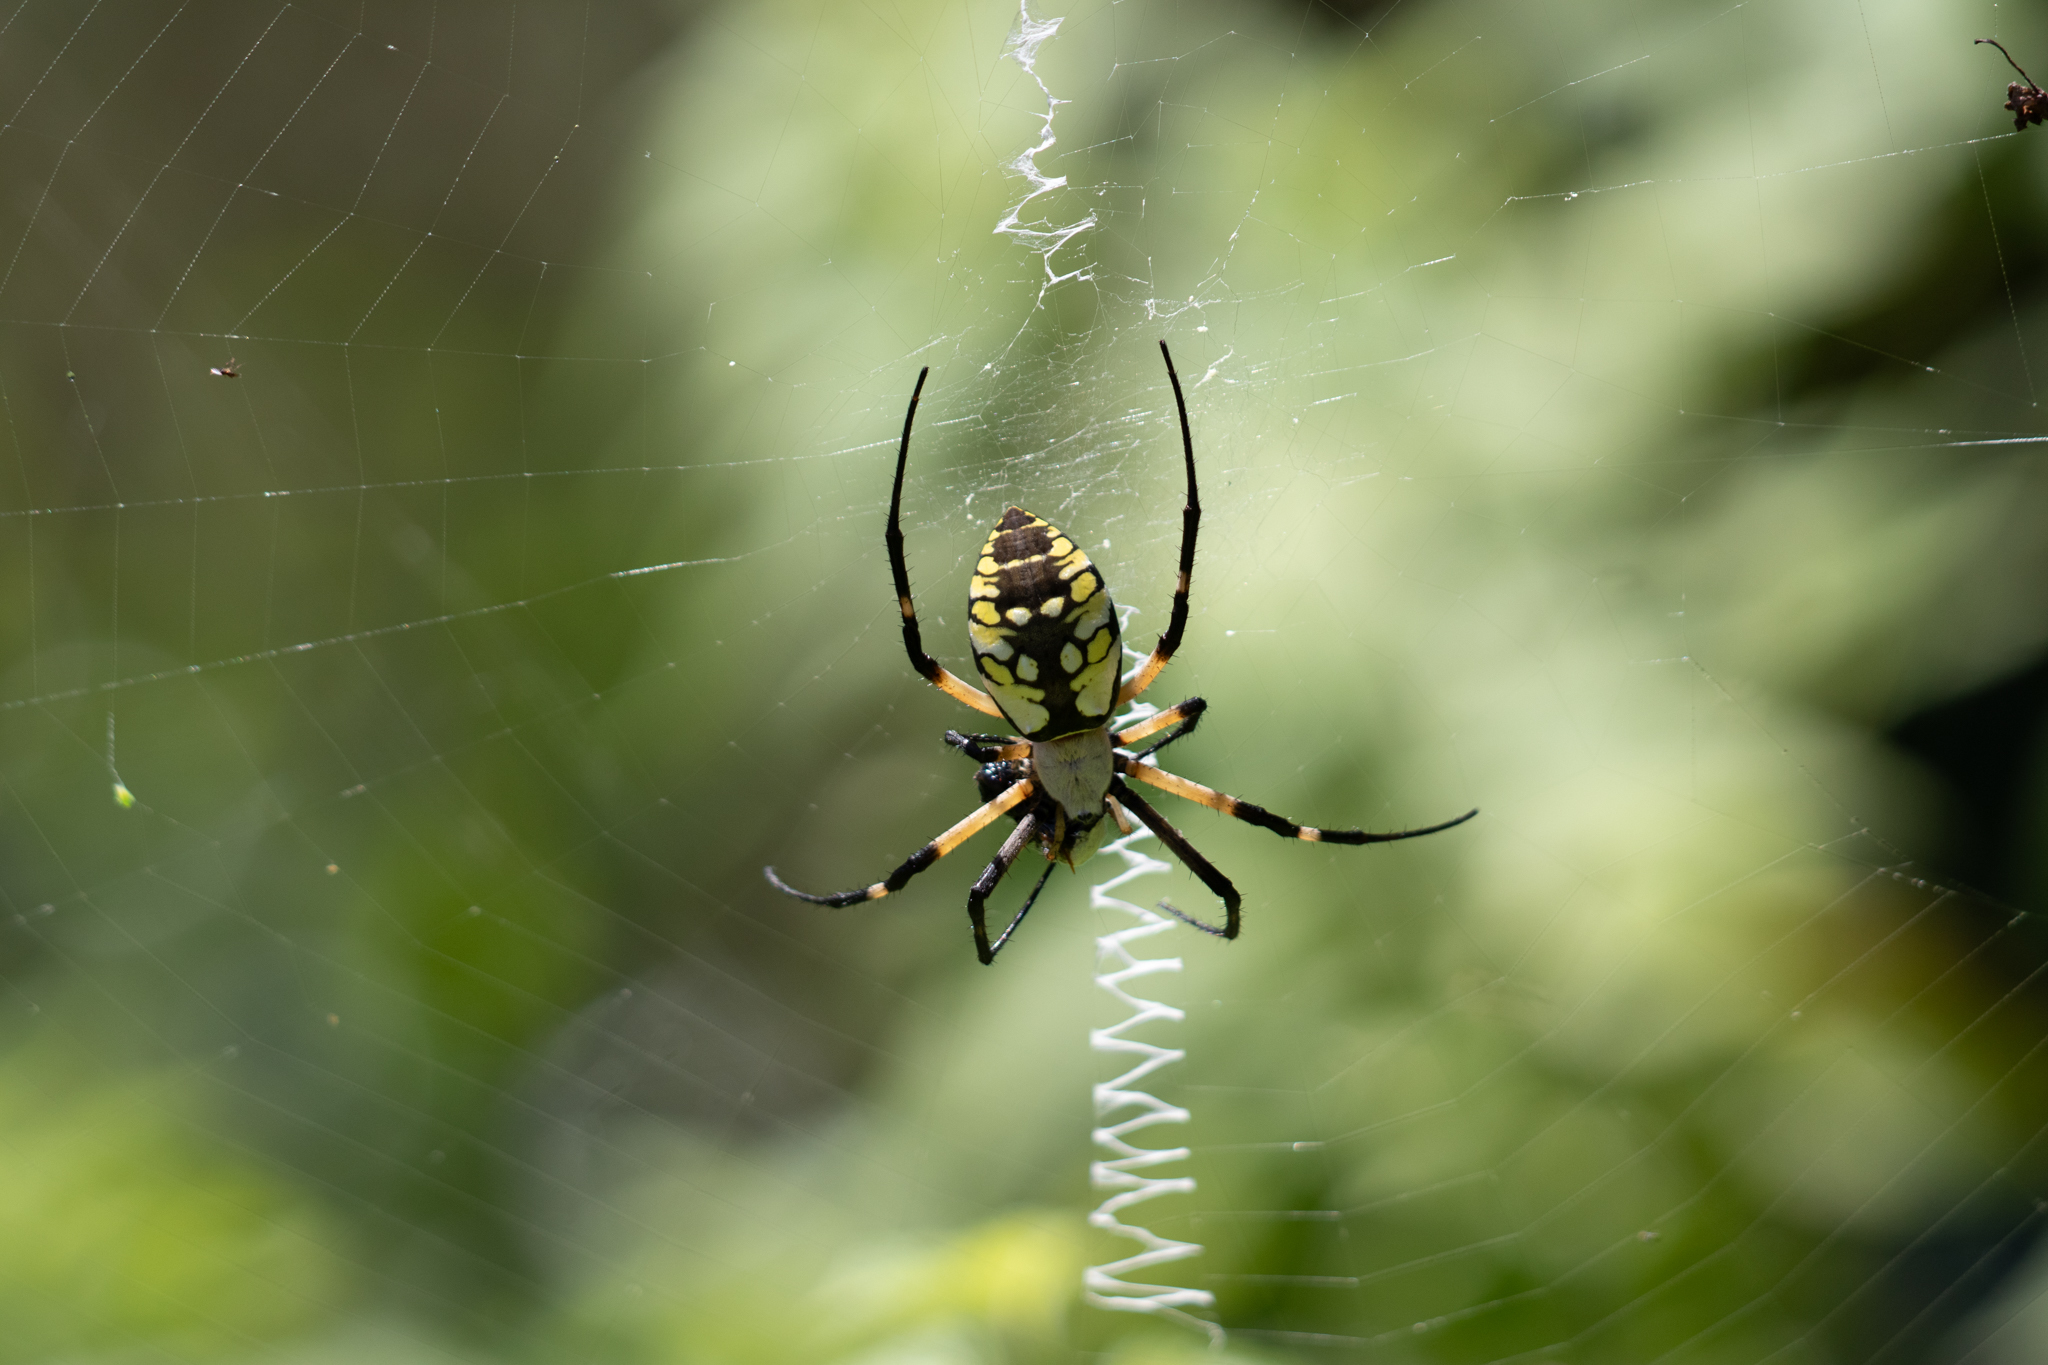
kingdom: Animalia
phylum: Arthropoda
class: Arachnida
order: Araneae
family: Araneidae
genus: Argiope
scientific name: Argiope aurantia
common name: Orb weavers
